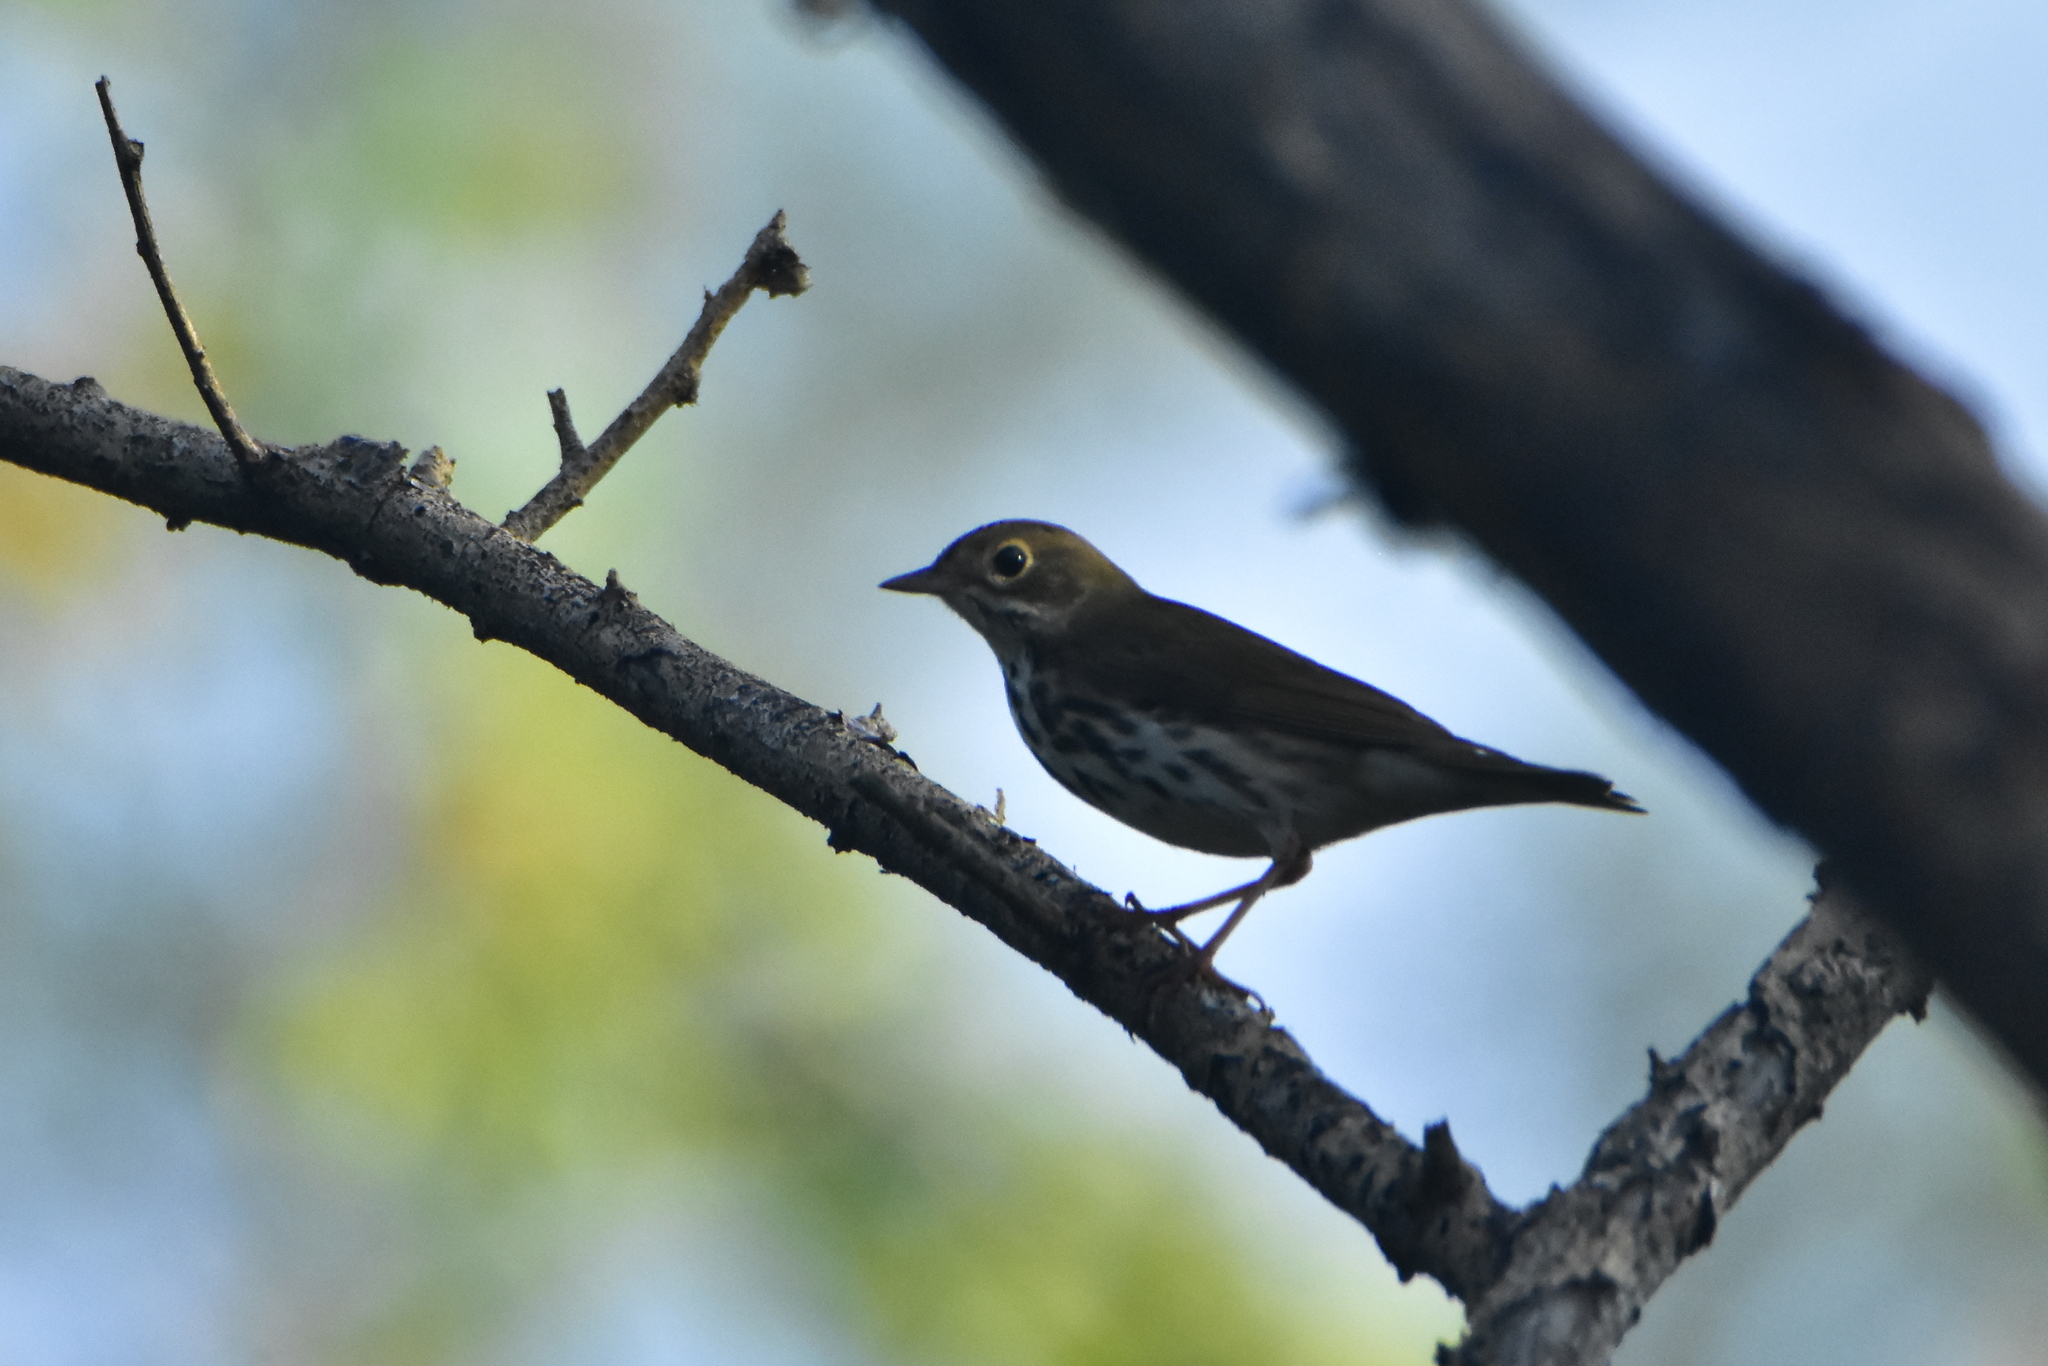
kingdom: Animalia
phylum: Chordata
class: Aves
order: Passeriformes
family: Parulidae
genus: Seiurus
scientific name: Seiurus aurocapilla
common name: Ovenbird
